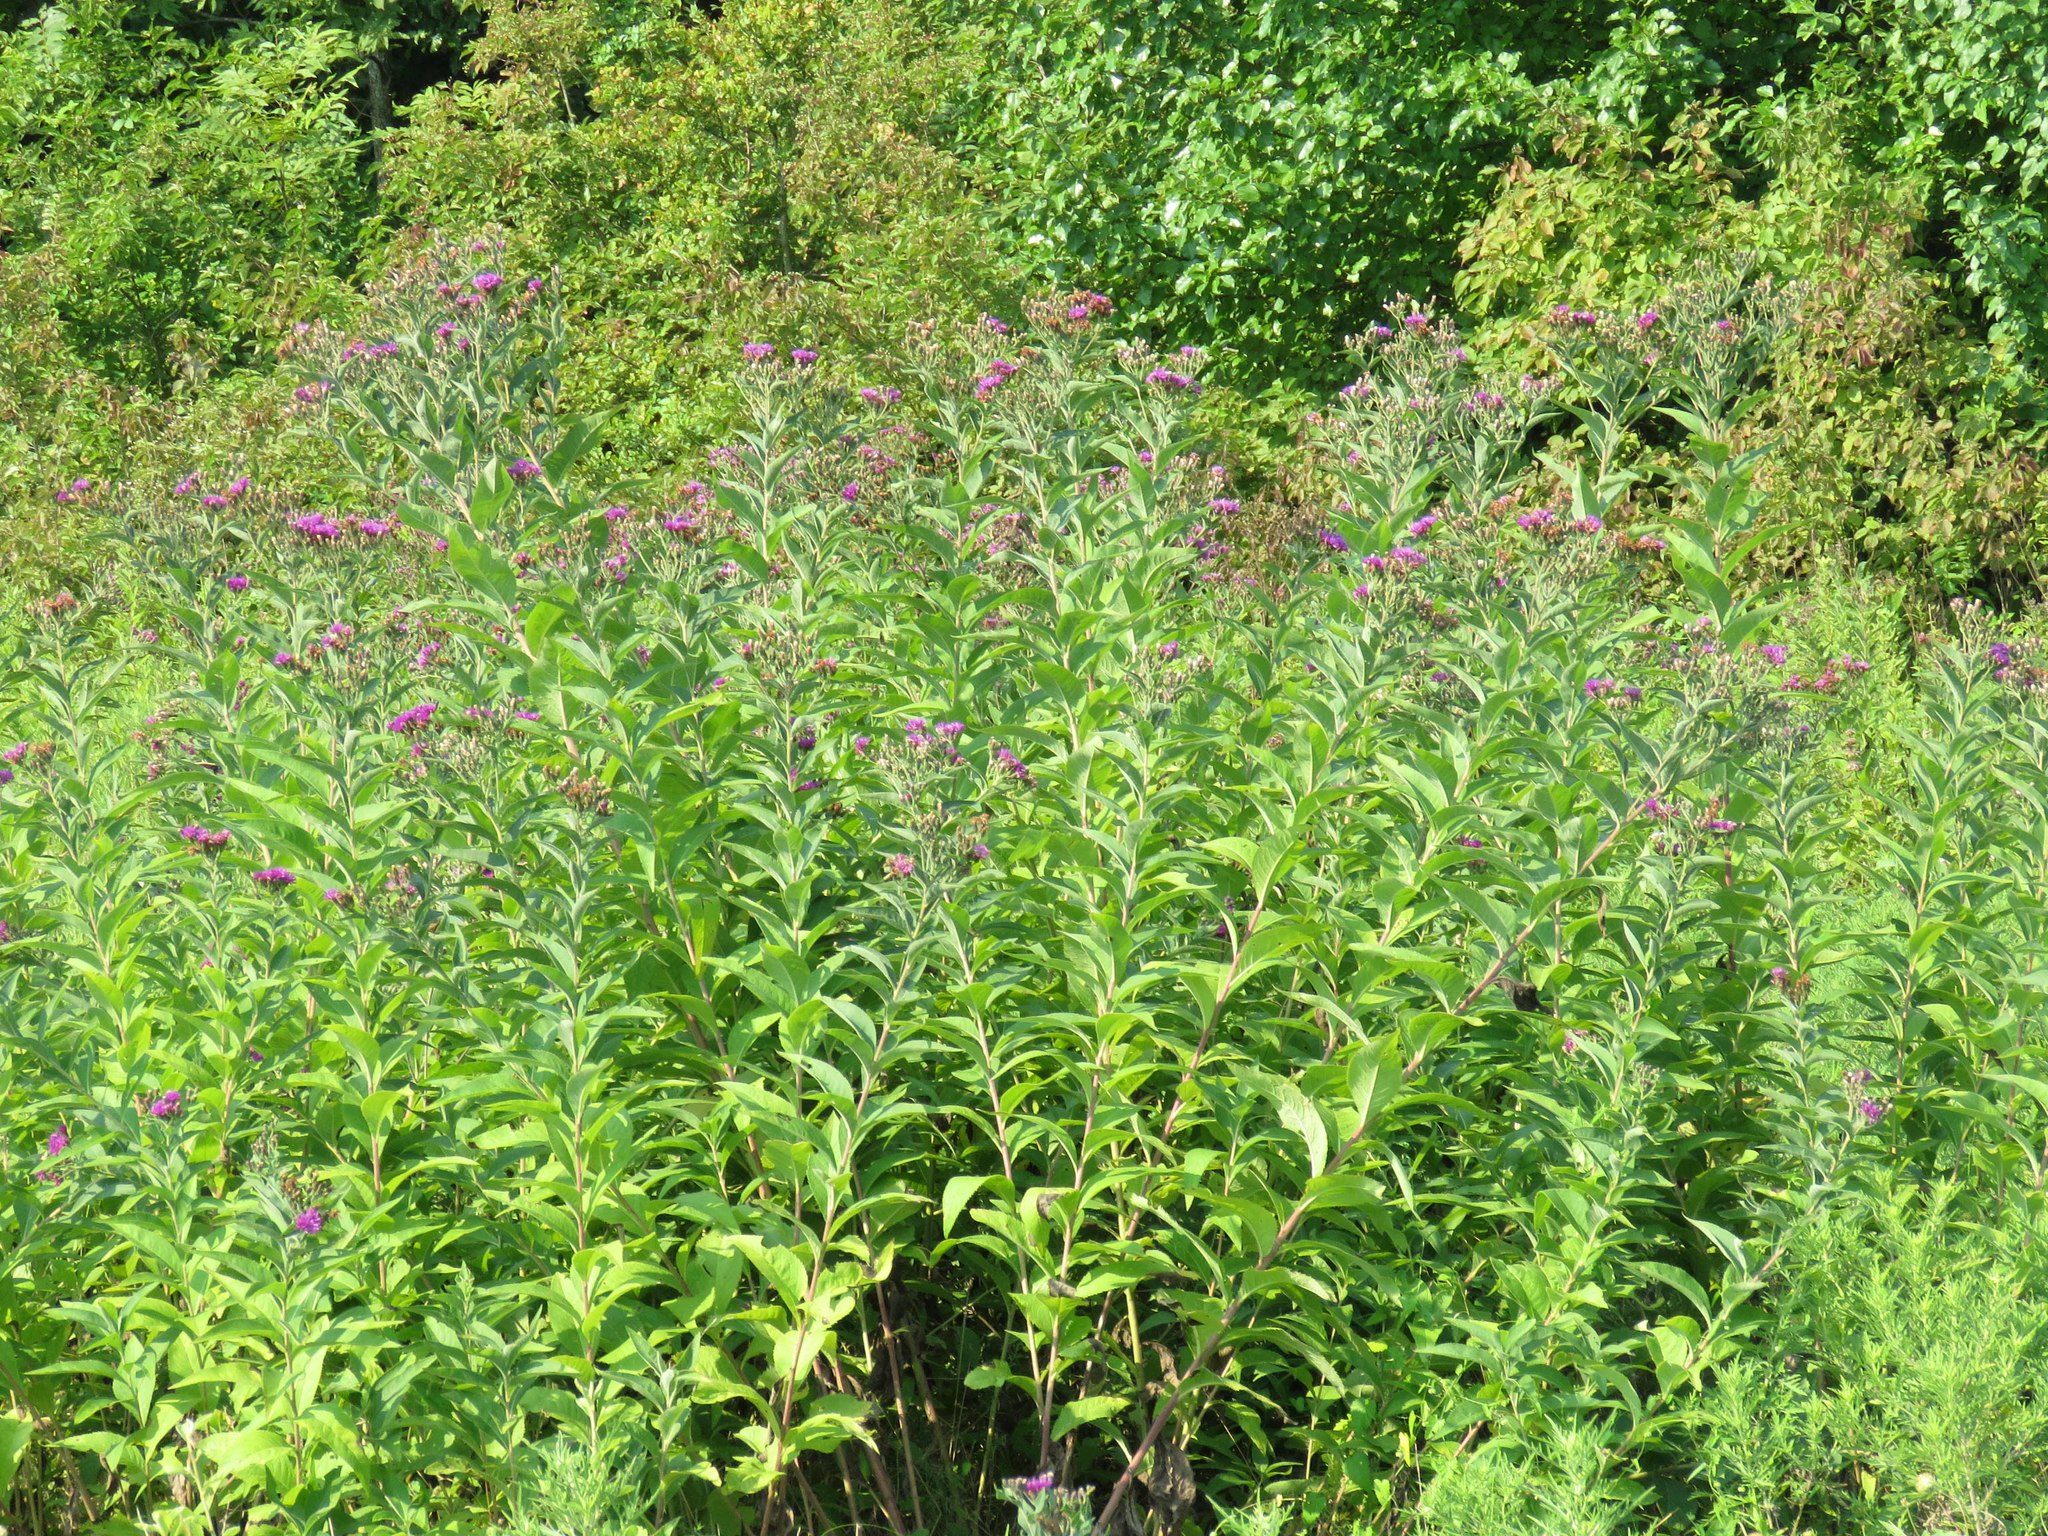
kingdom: Plantae
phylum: Tracheophyta
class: Magnoliopsida
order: Asterales
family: Asteraceae
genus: Vernonia
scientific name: Vernonia baldwinii
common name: Western ironweed
